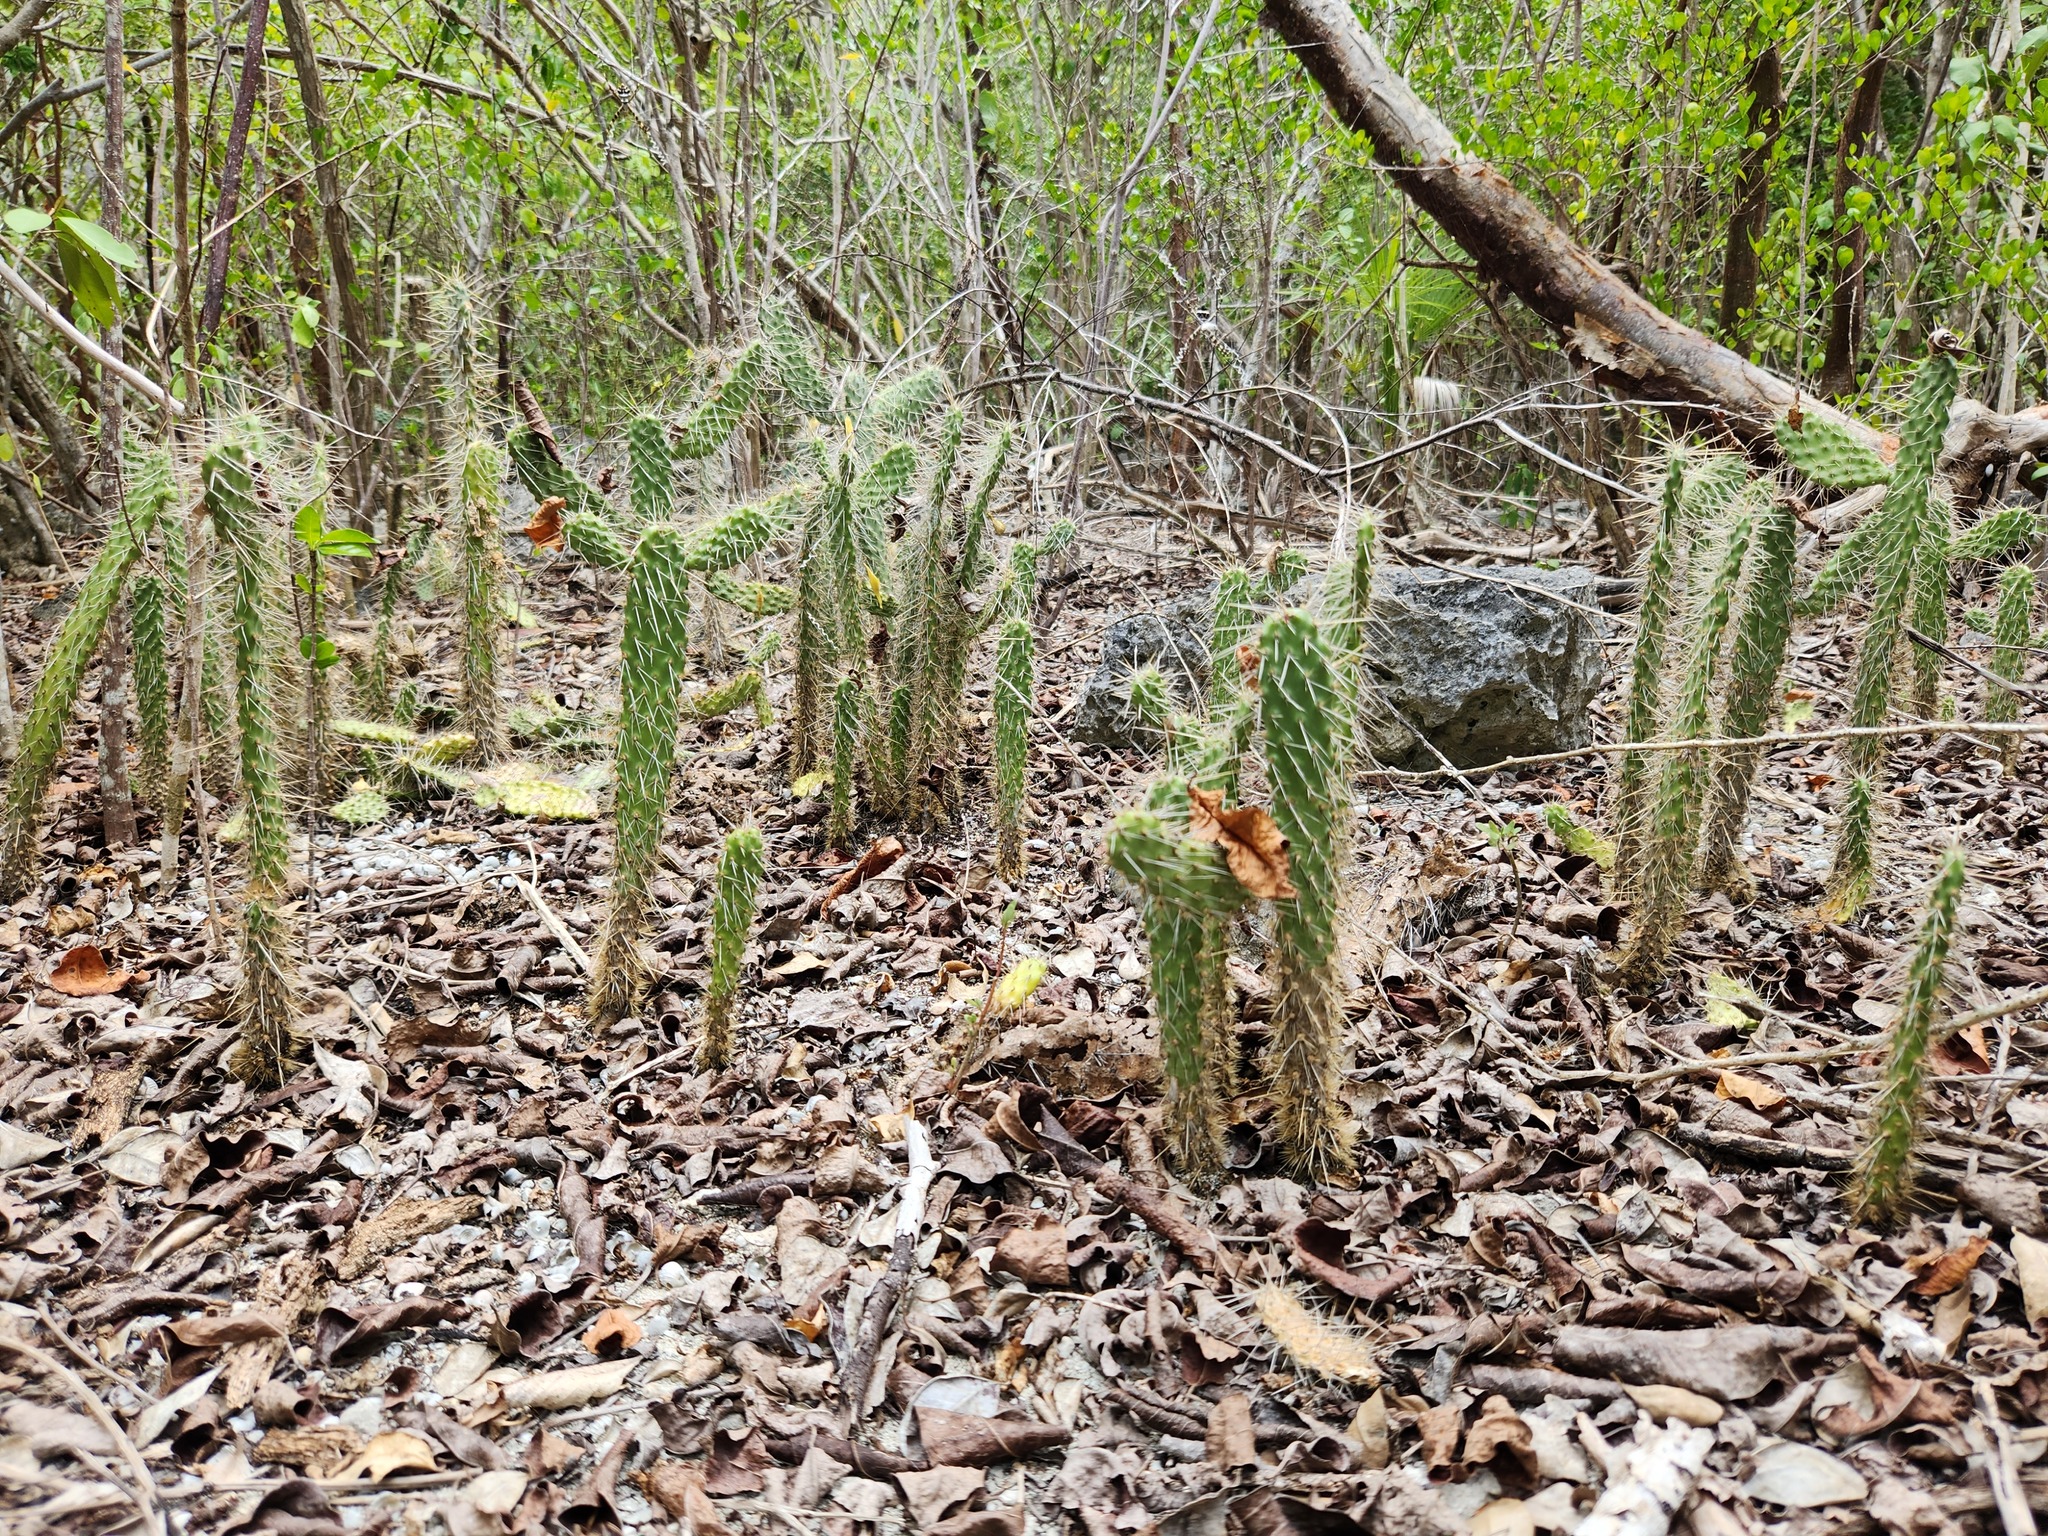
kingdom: Plantae
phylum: Tracheophyta
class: Magnoliopsida
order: Caryophyllales
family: Cactaceae
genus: Consolea
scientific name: Consolea macracantha
